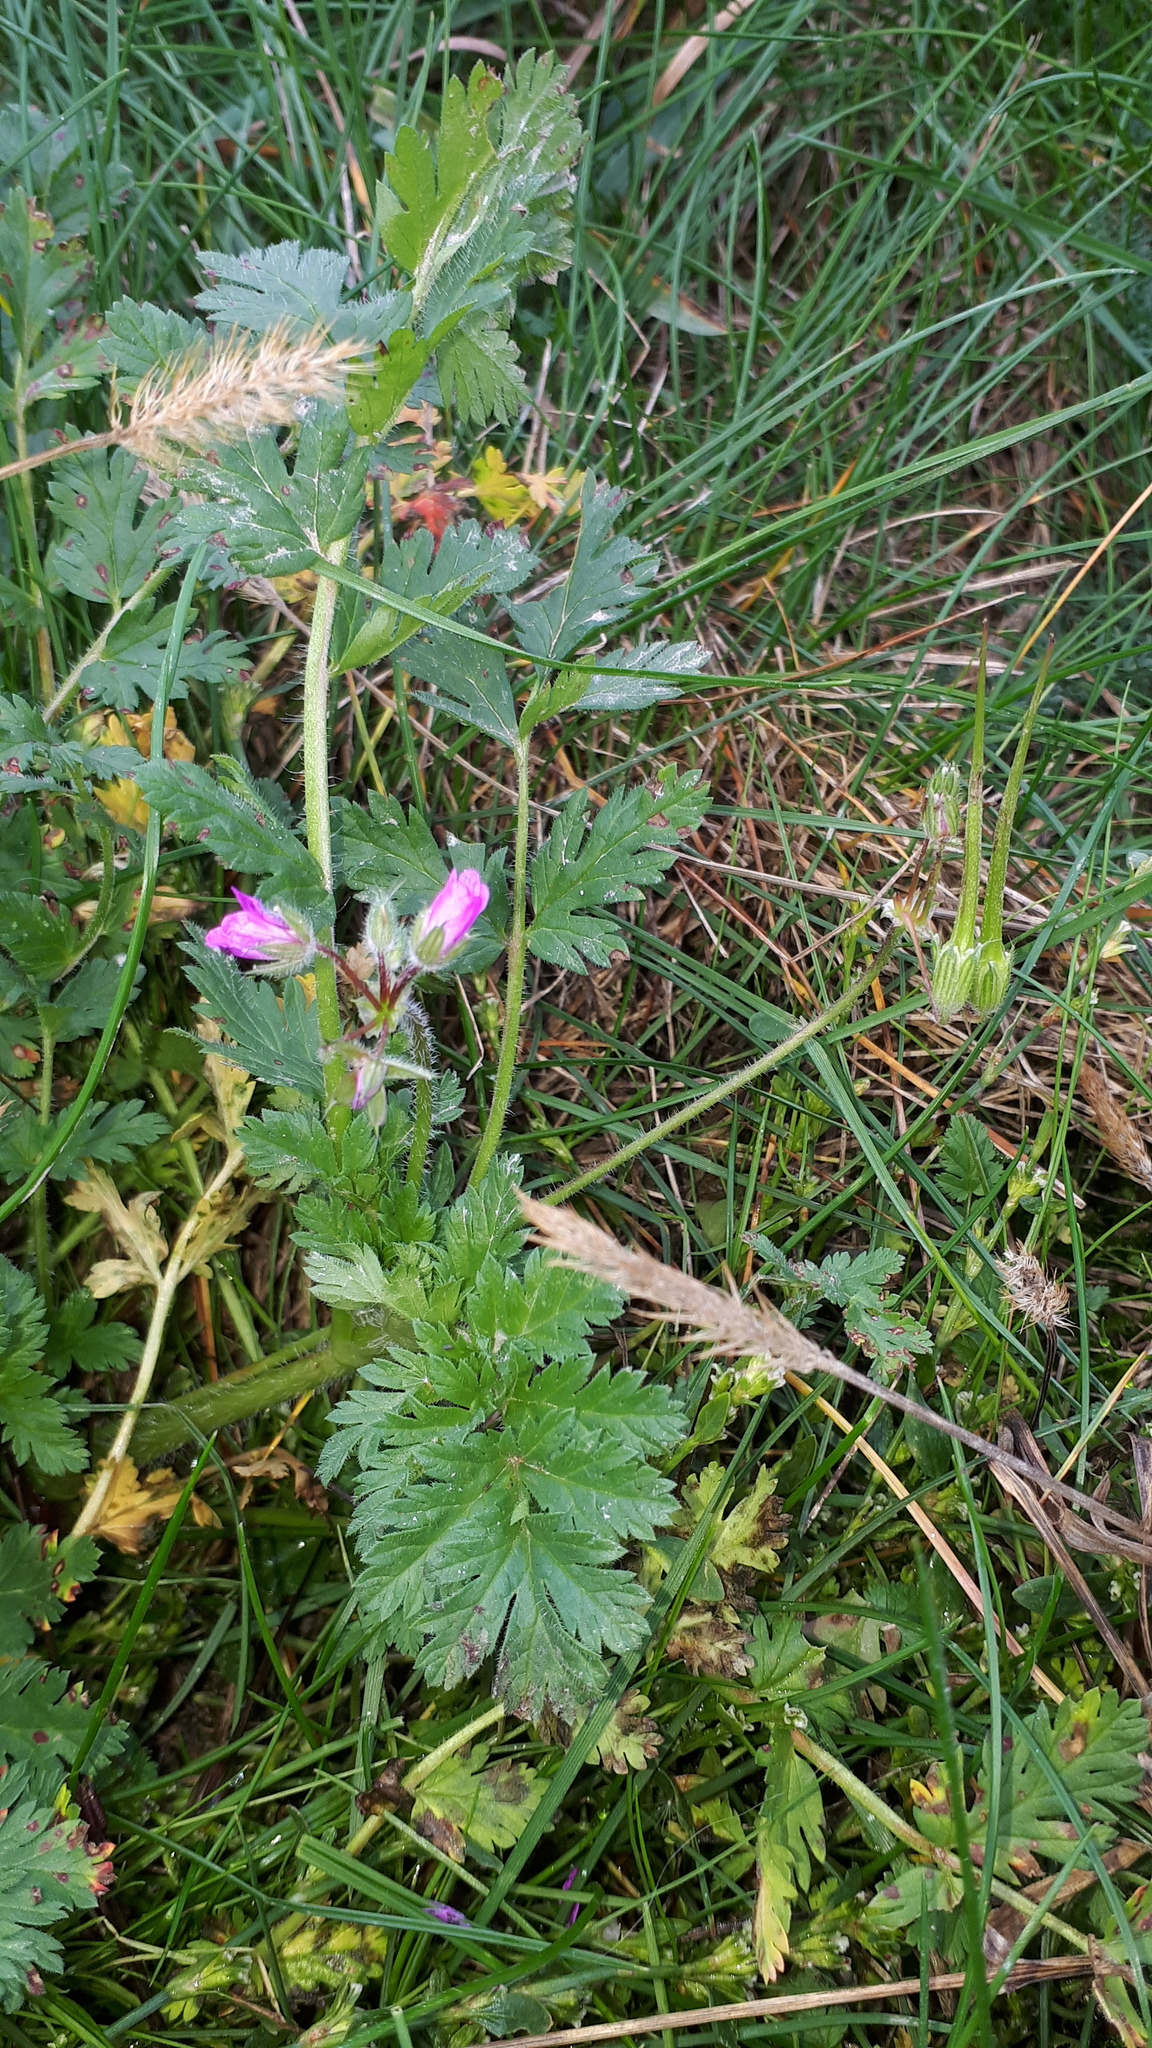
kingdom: Plantae
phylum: Tracheophyta
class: Magnoliopsida
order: Geraniales
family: Geraniaceae
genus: Erodium
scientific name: Erodium cicutarium
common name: Common stork's-bill
